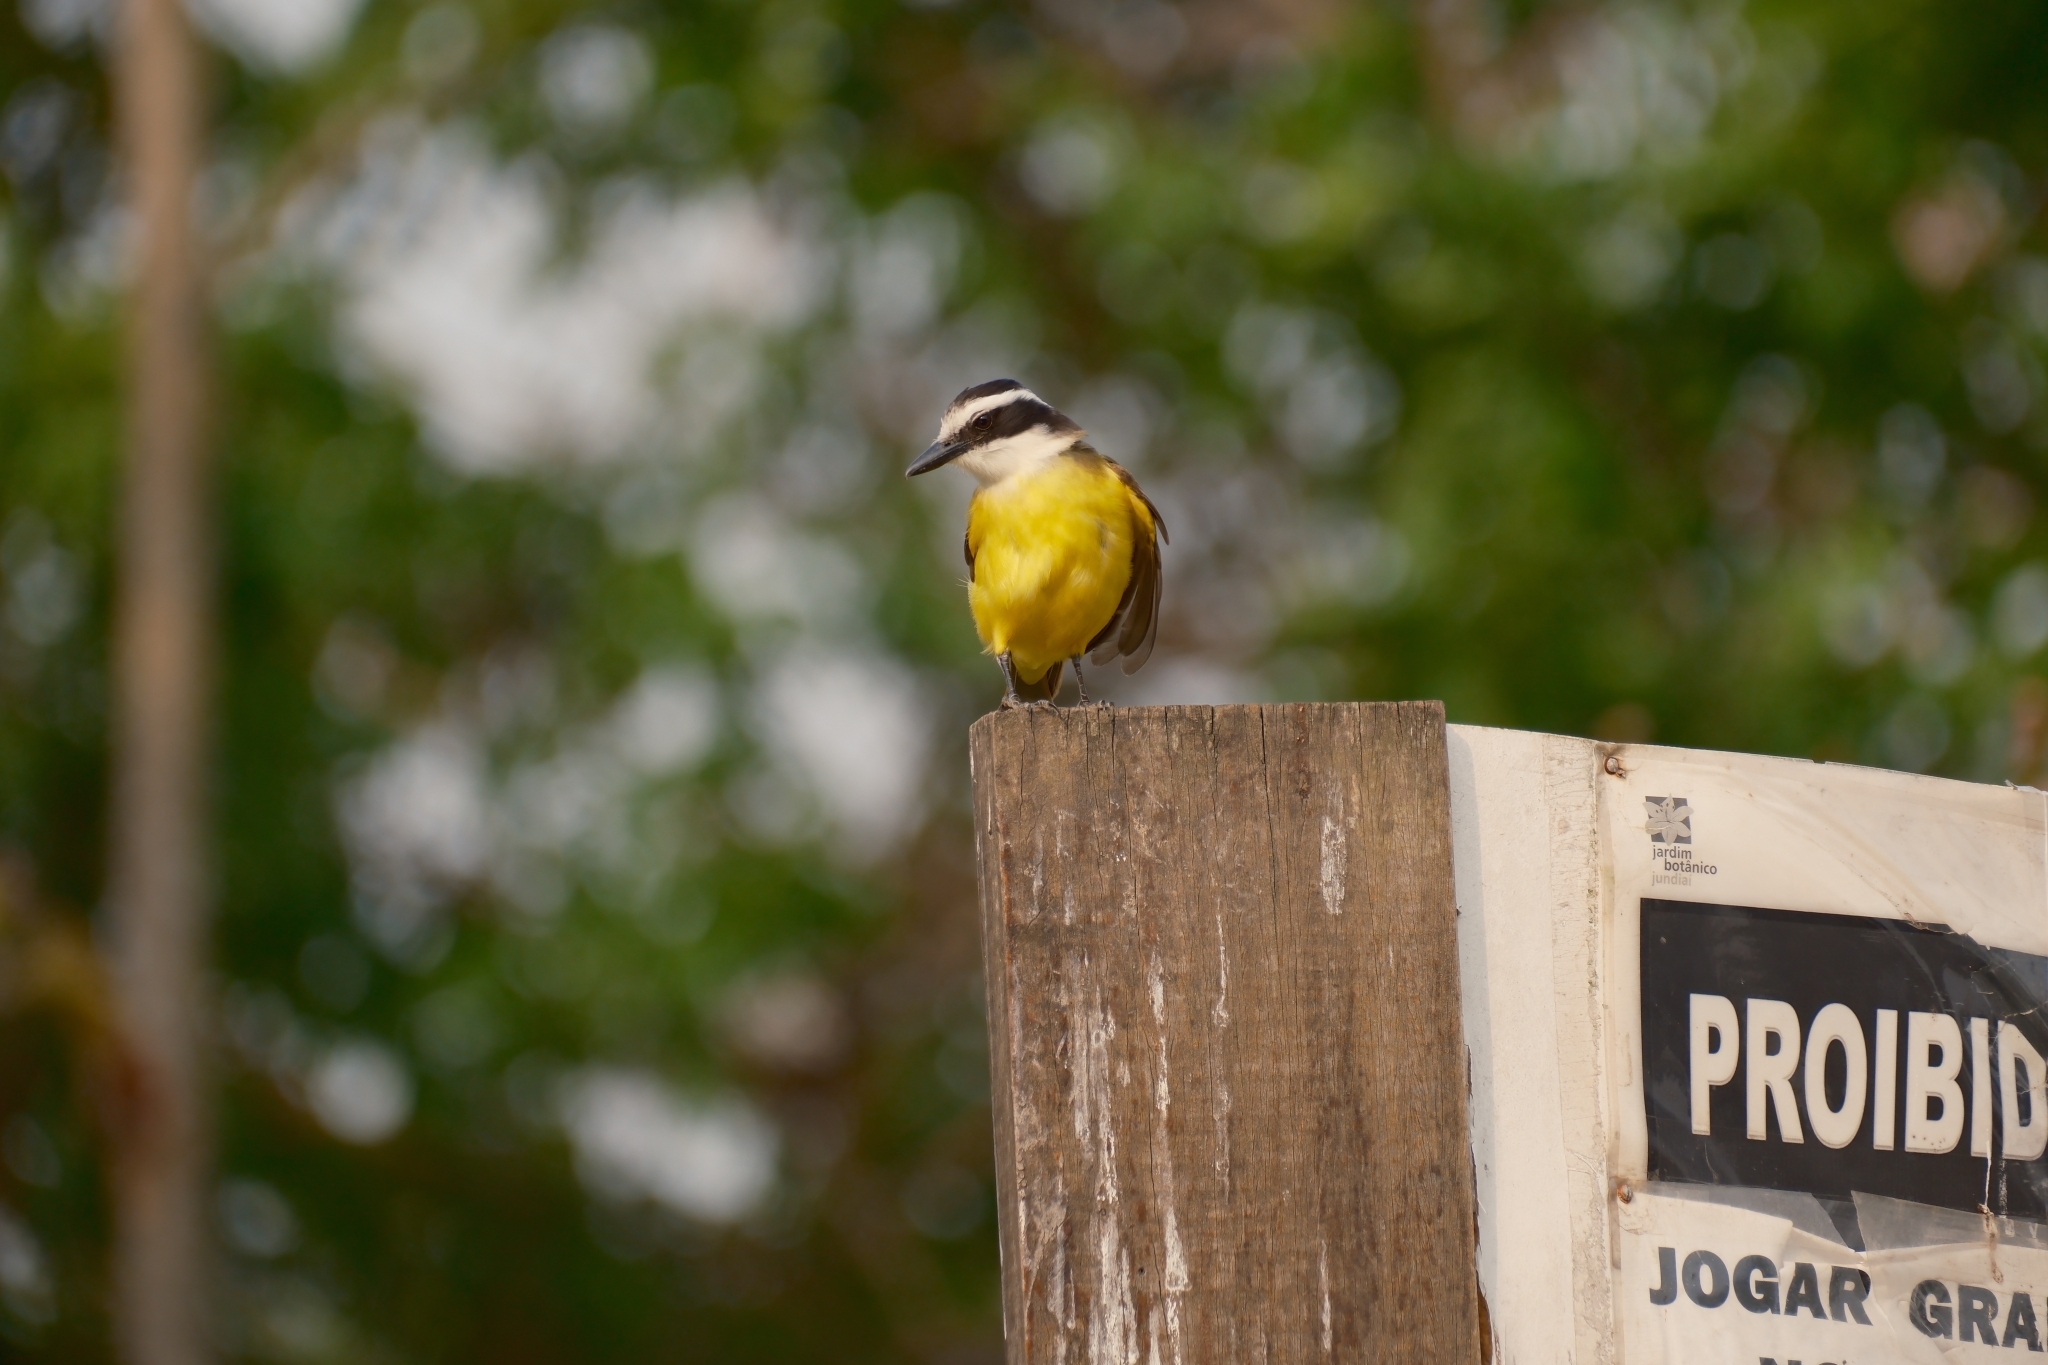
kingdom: Animalia
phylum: Chordata
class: Aves
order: Passeriformes
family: Tyrannidae
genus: Pitangus
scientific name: Pitangus sulphuratus
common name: Great kiskadee
